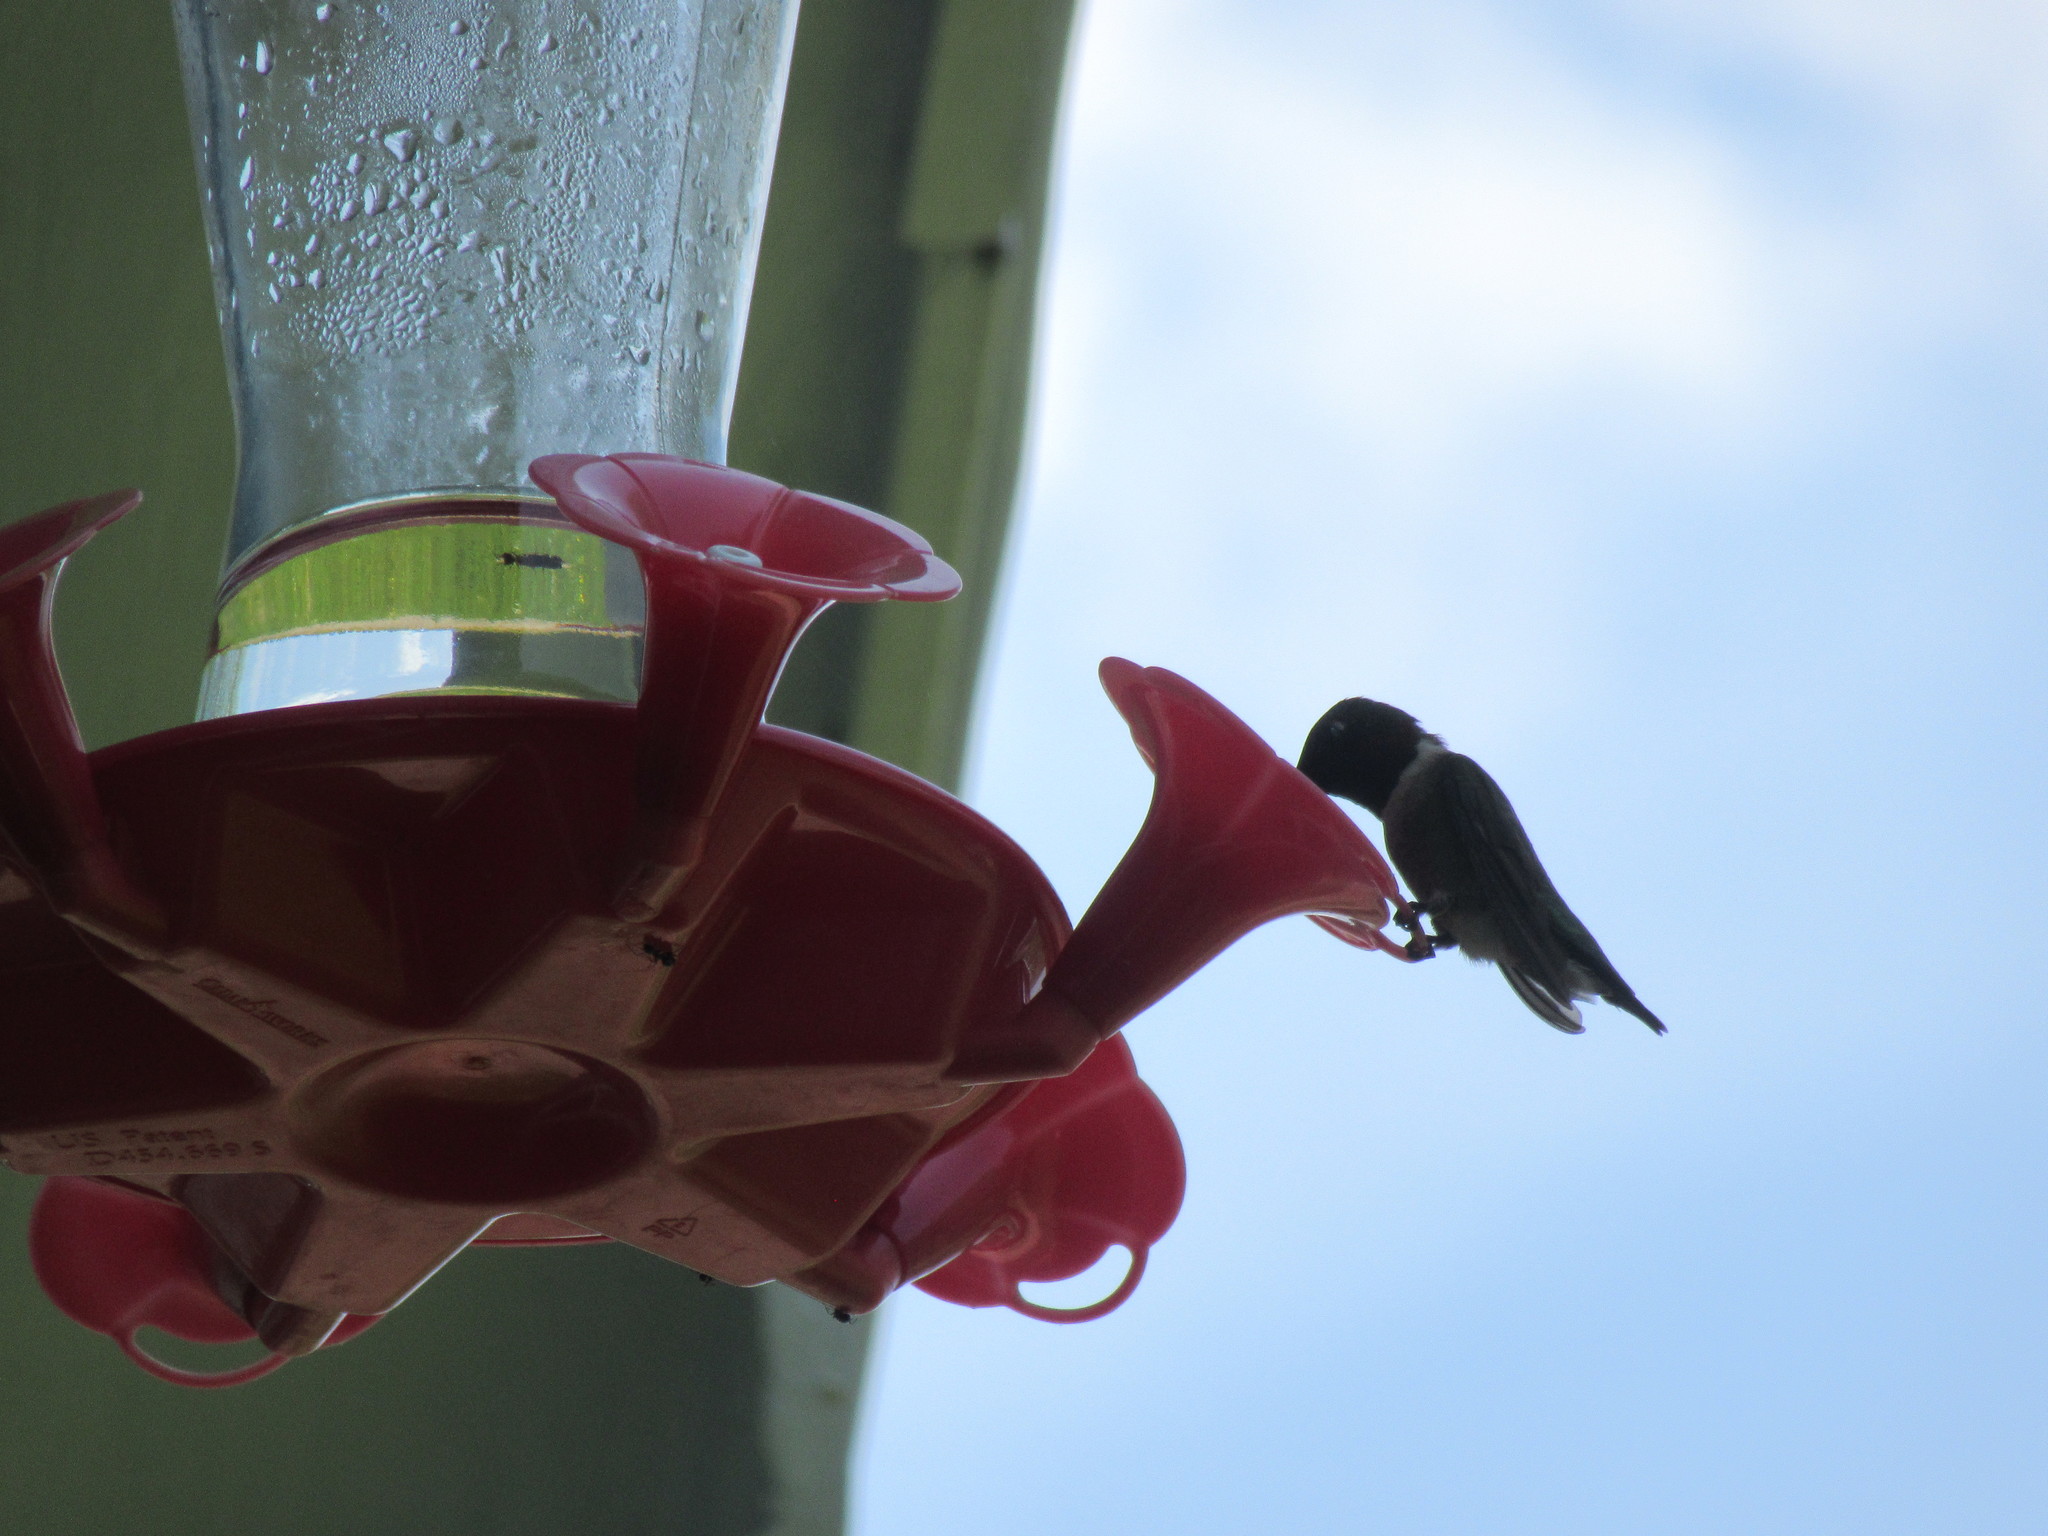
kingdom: Animalia
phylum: Chordata
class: Aves
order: Apodiformes
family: Trochilidae
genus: Archilochus
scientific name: Archilochus colubris
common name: Ruby-throated hummingbird
